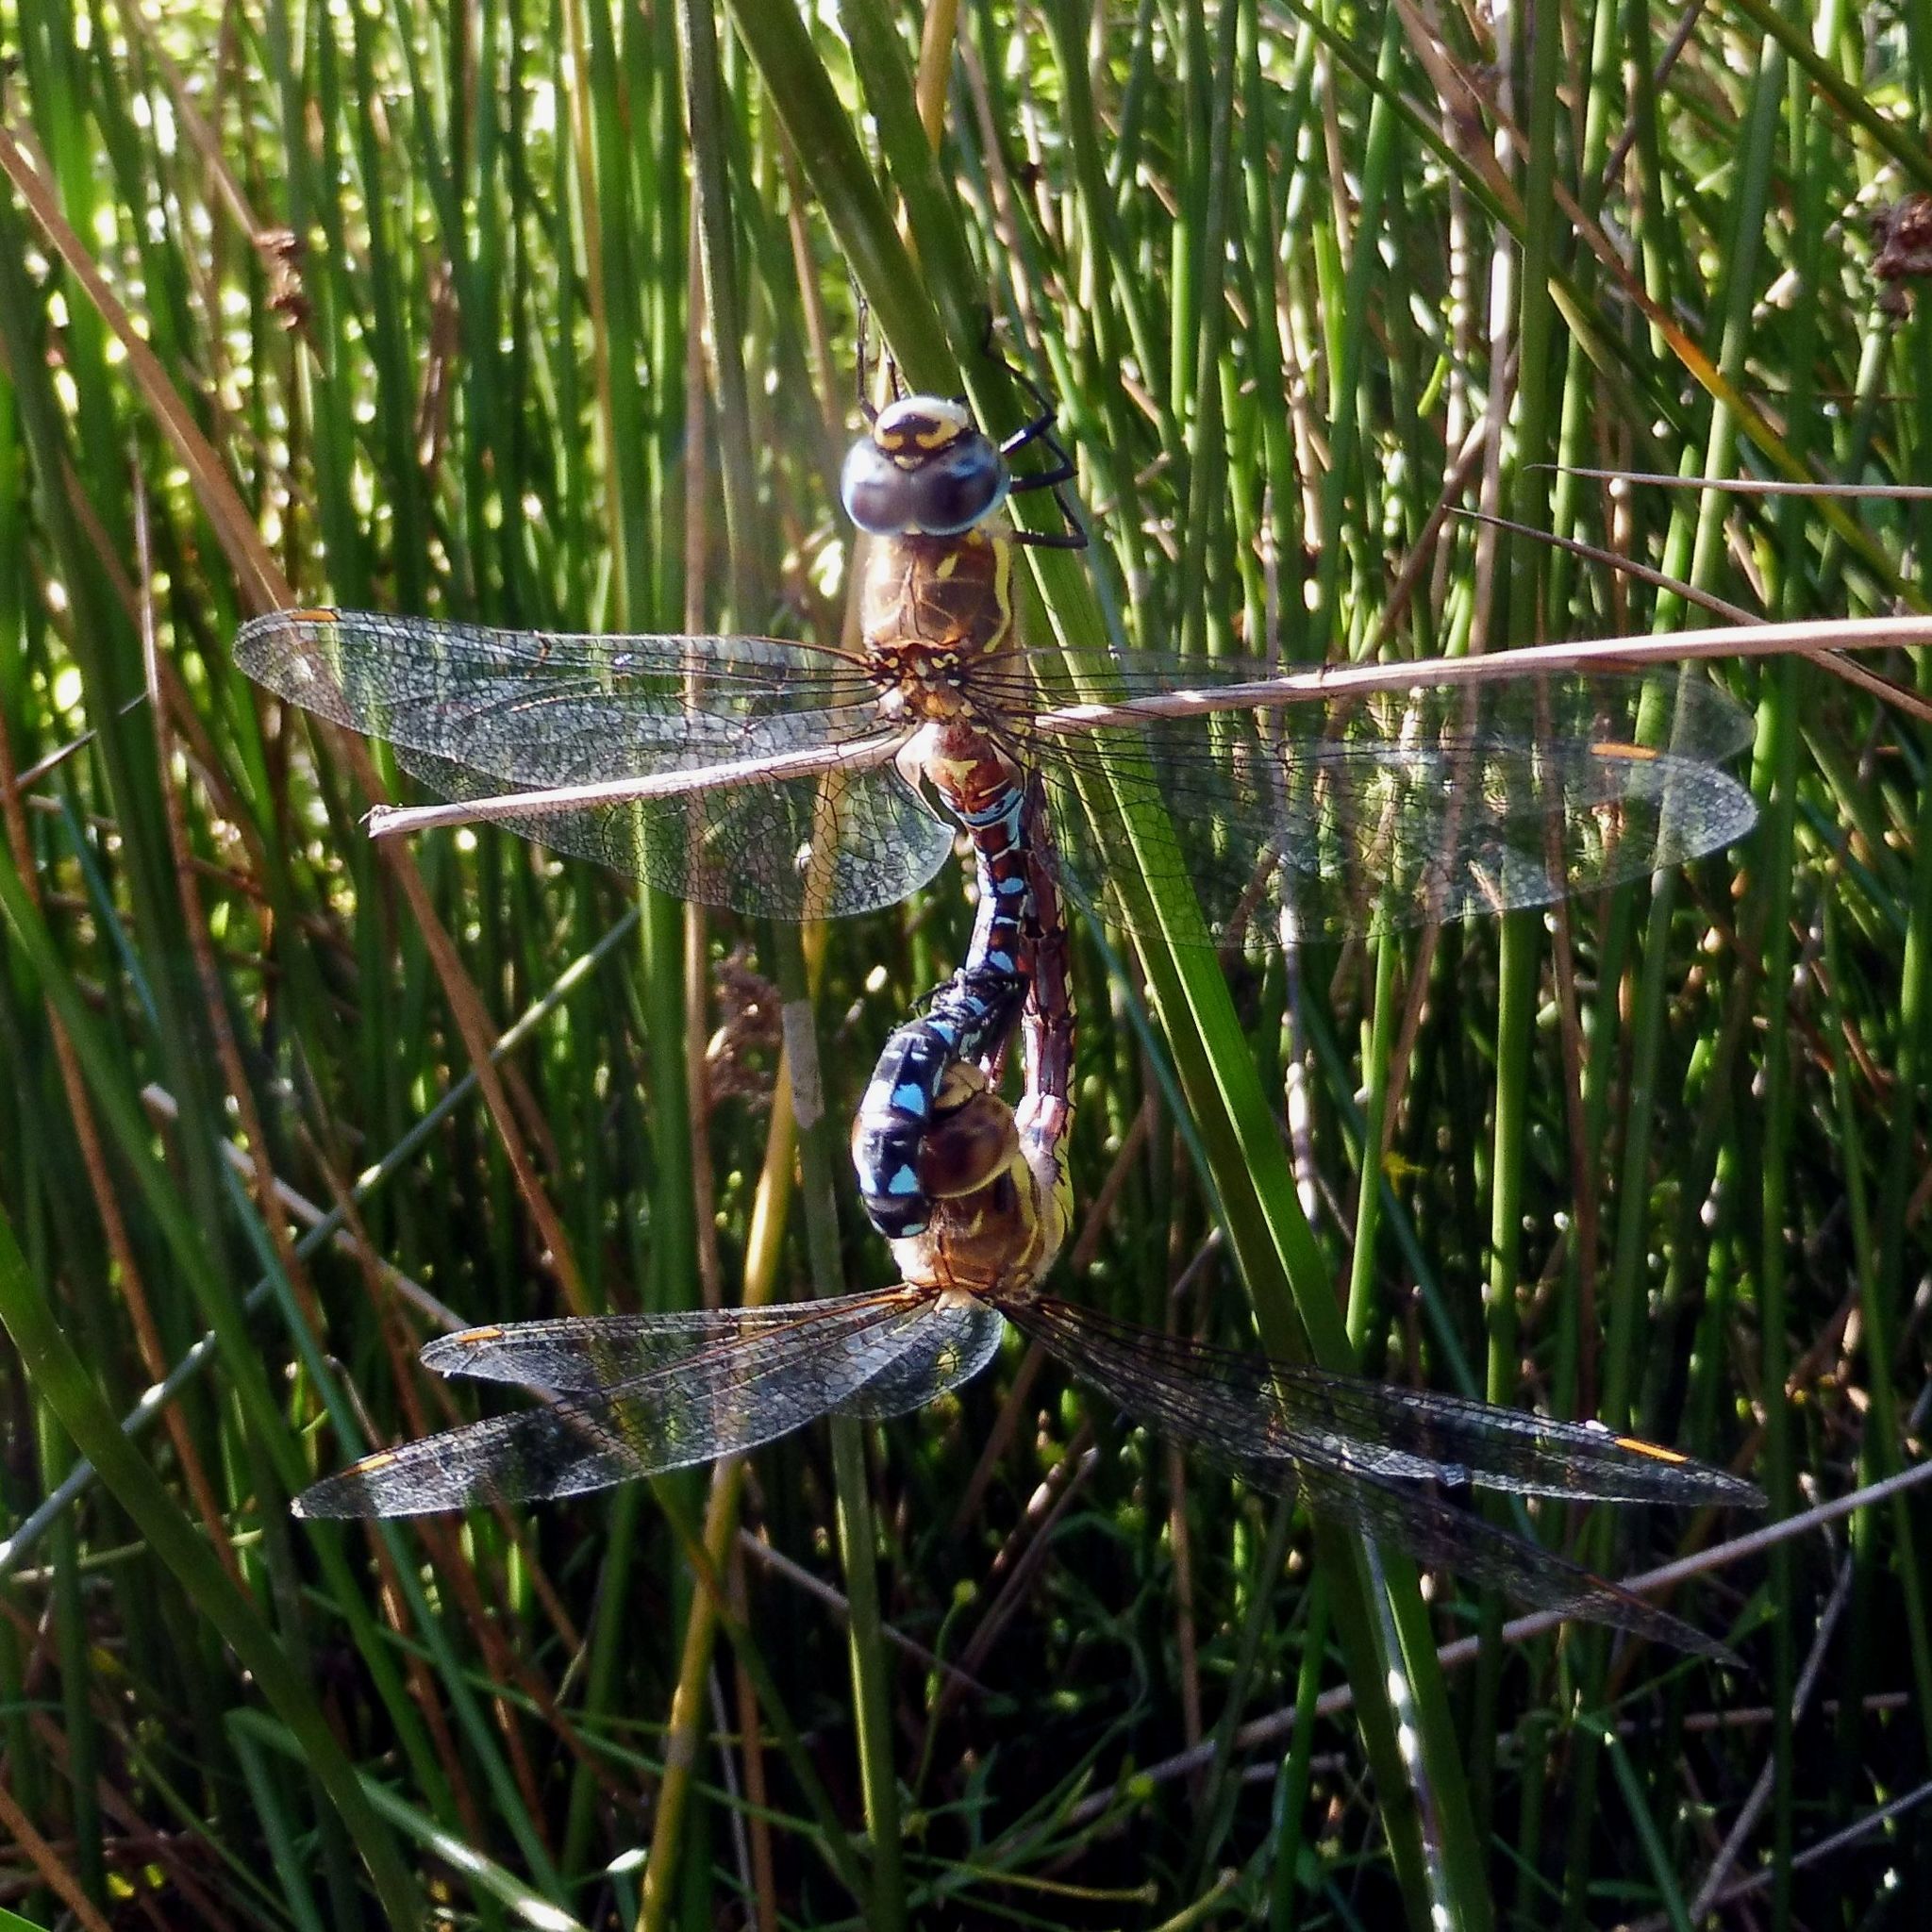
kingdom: Animalia
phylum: Arthropoda
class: Insecta
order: Odonata
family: Aeshnidae
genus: Aeshna
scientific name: Aeshna mixta
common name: Migrant hawker
